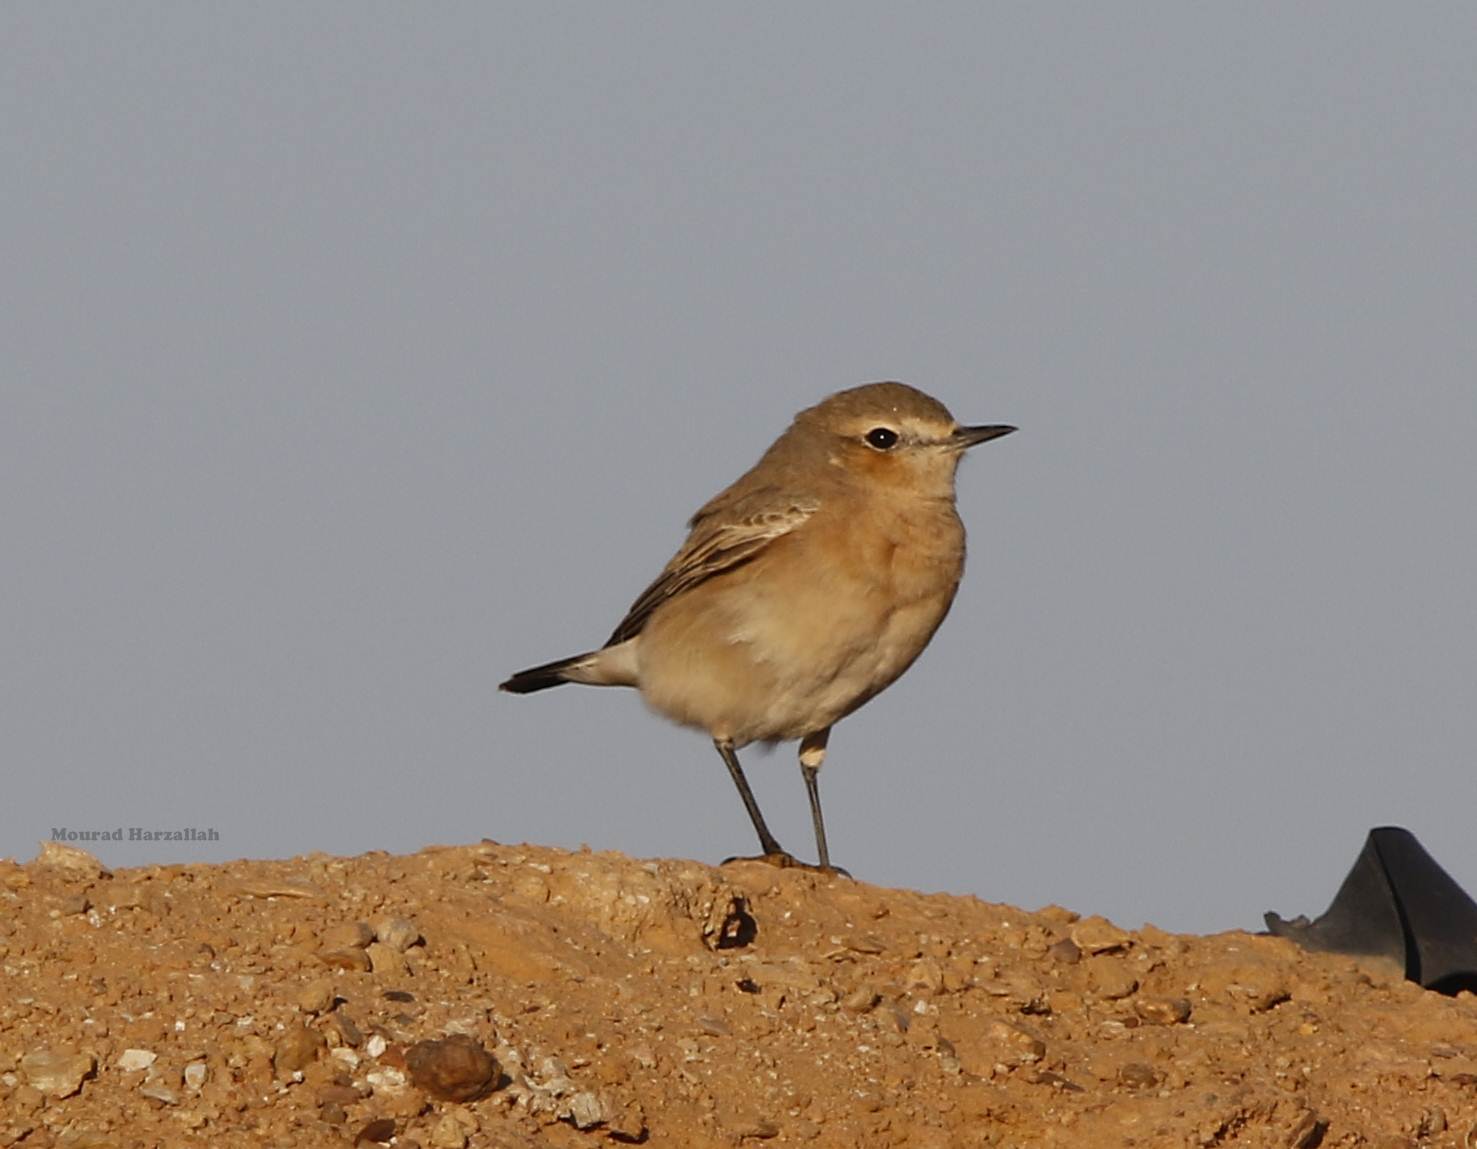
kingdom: Animalia
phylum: Chordata
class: Aves
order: Passeriformes
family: Muscicapidae
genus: Oenanthe
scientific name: Oenanthe isabellina
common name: Isabelline wheatear
